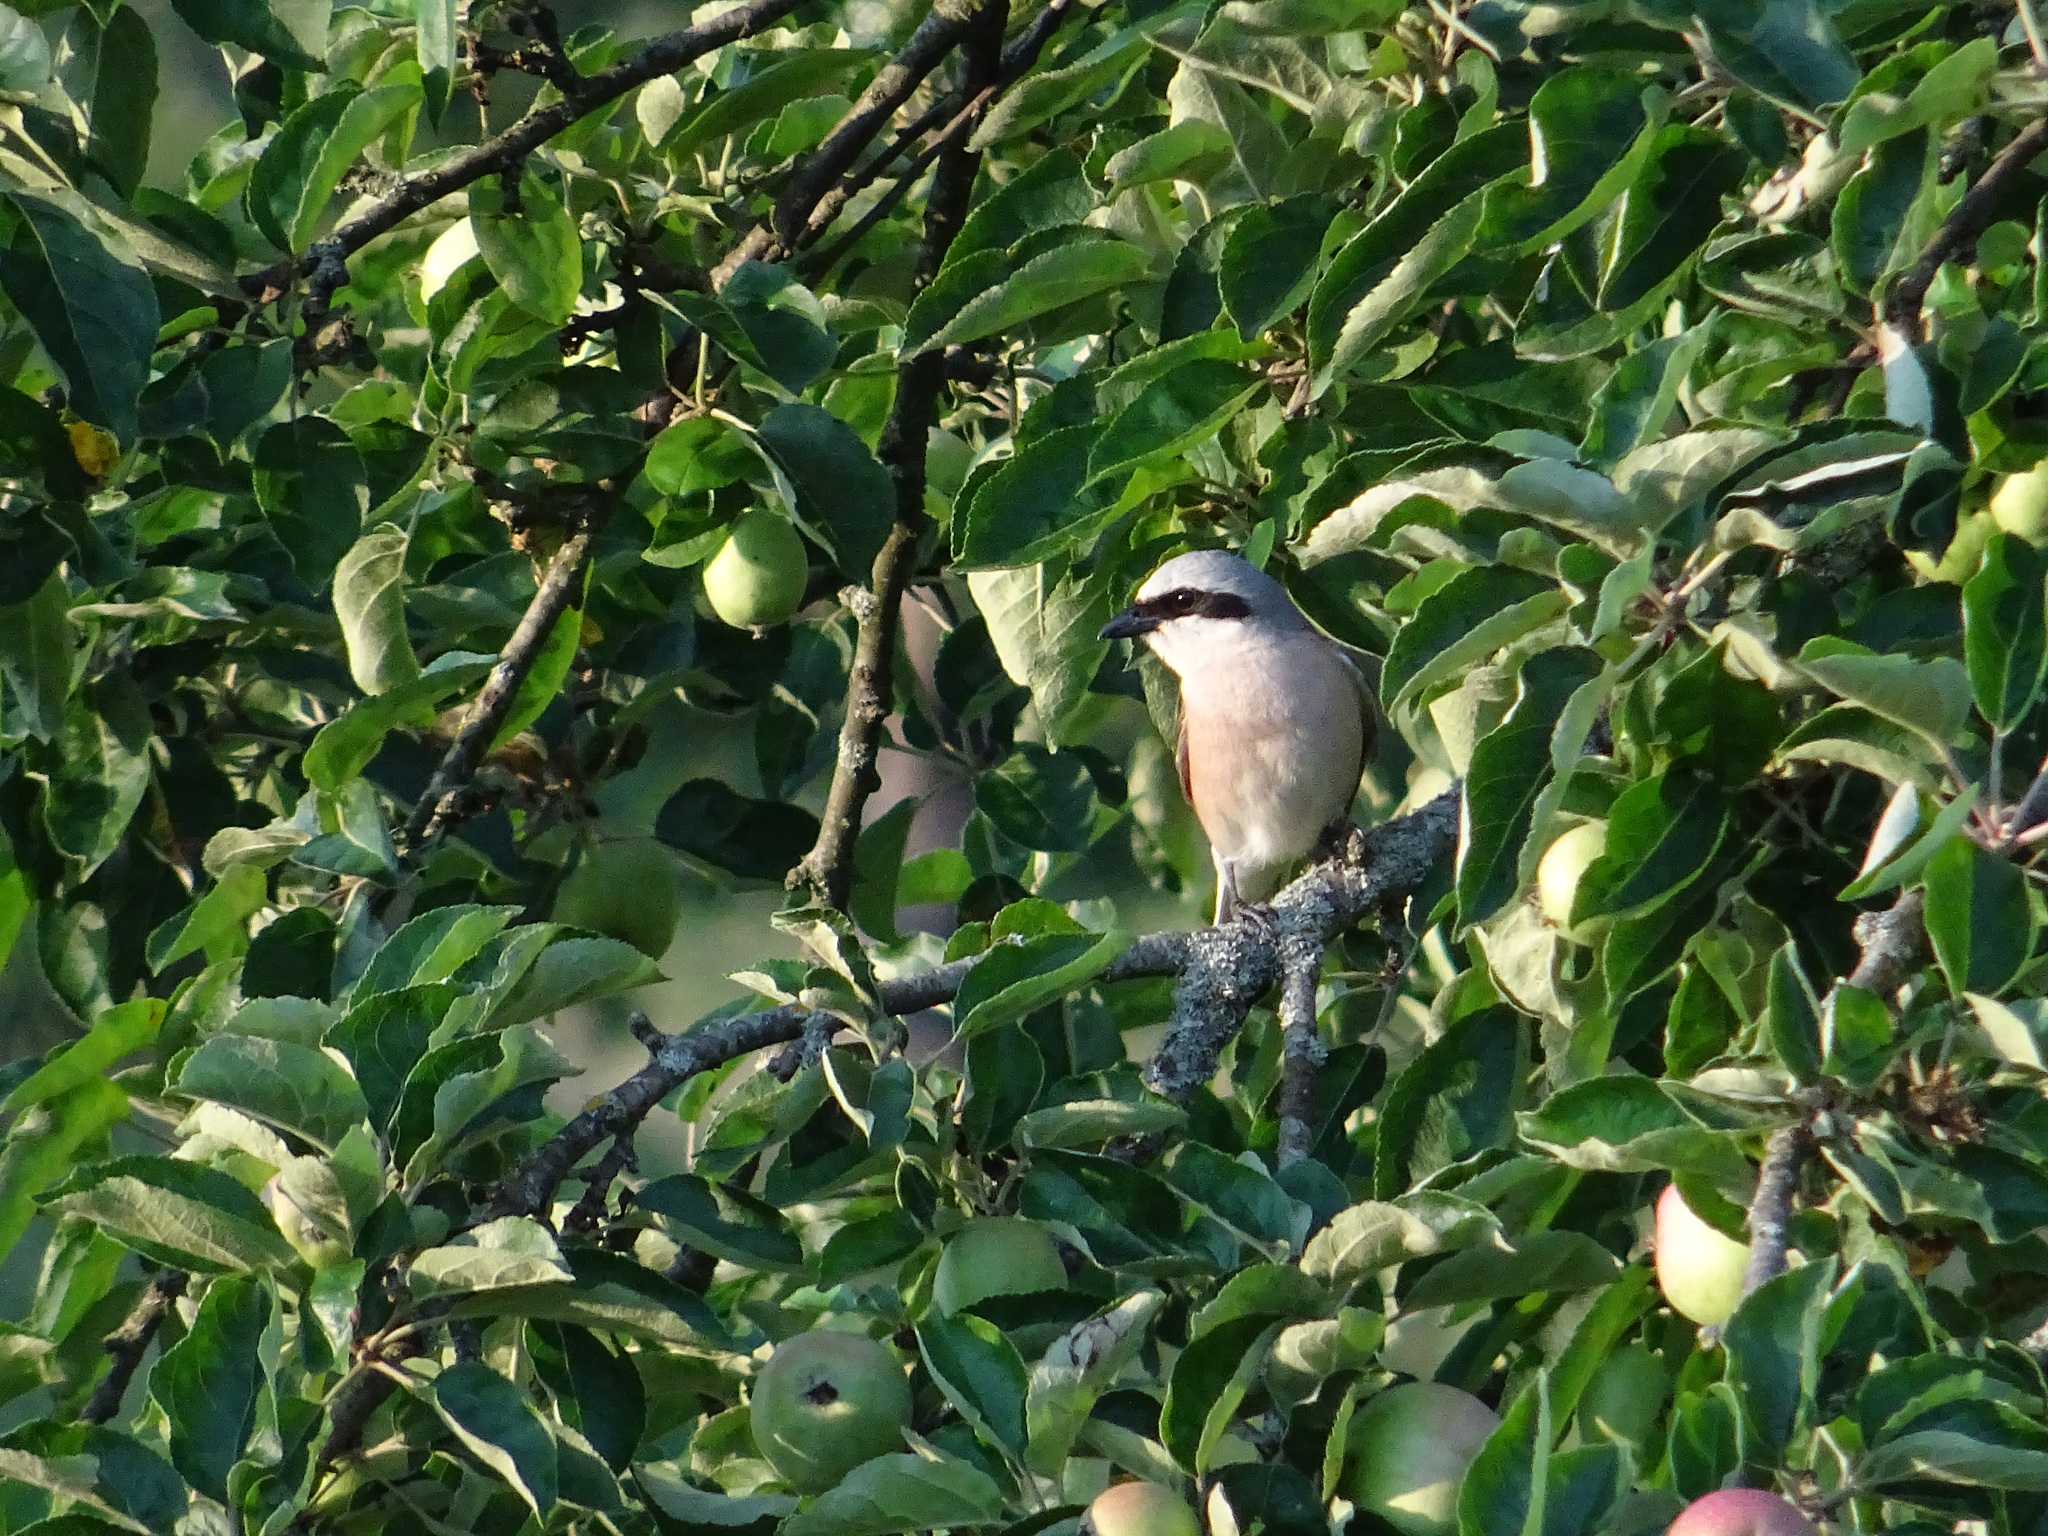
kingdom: Animalia
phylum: Chordata
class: Aves
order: Passeriformes
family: Laniidae
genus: Lanius
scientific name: Lanius collurio
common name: Red-backed shrike
